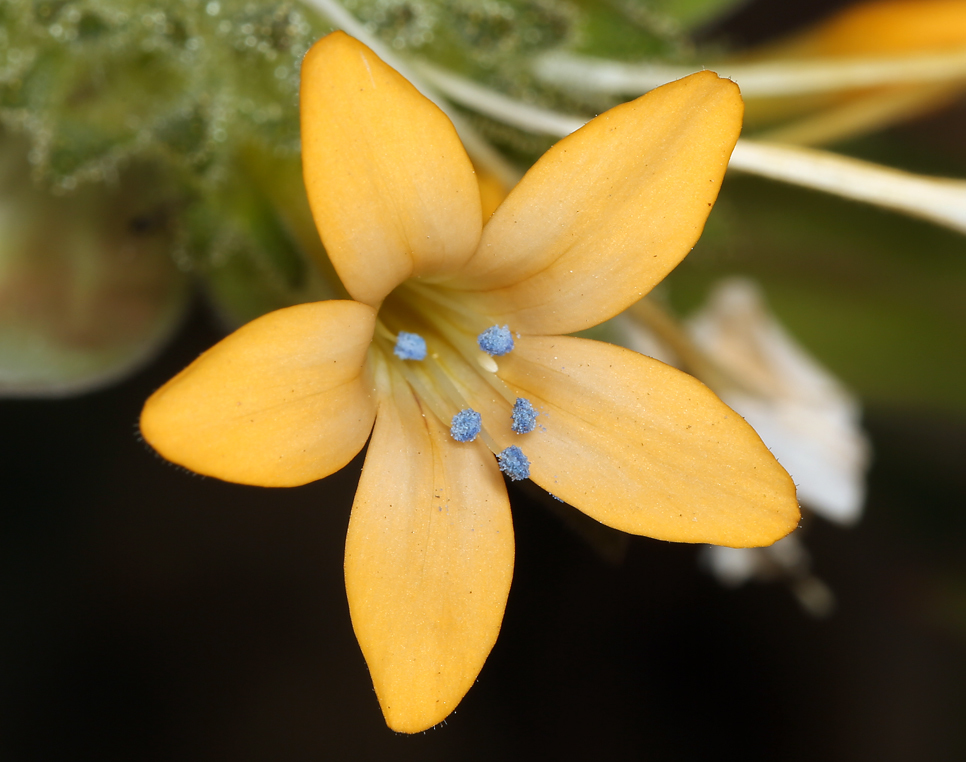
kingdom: Plantae
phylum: Tracheophyta
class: Magnoliopsida
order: Ericales
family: Polemoniaceae
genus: Collomia
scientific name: Collomia grandiflora
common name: California strawflower
